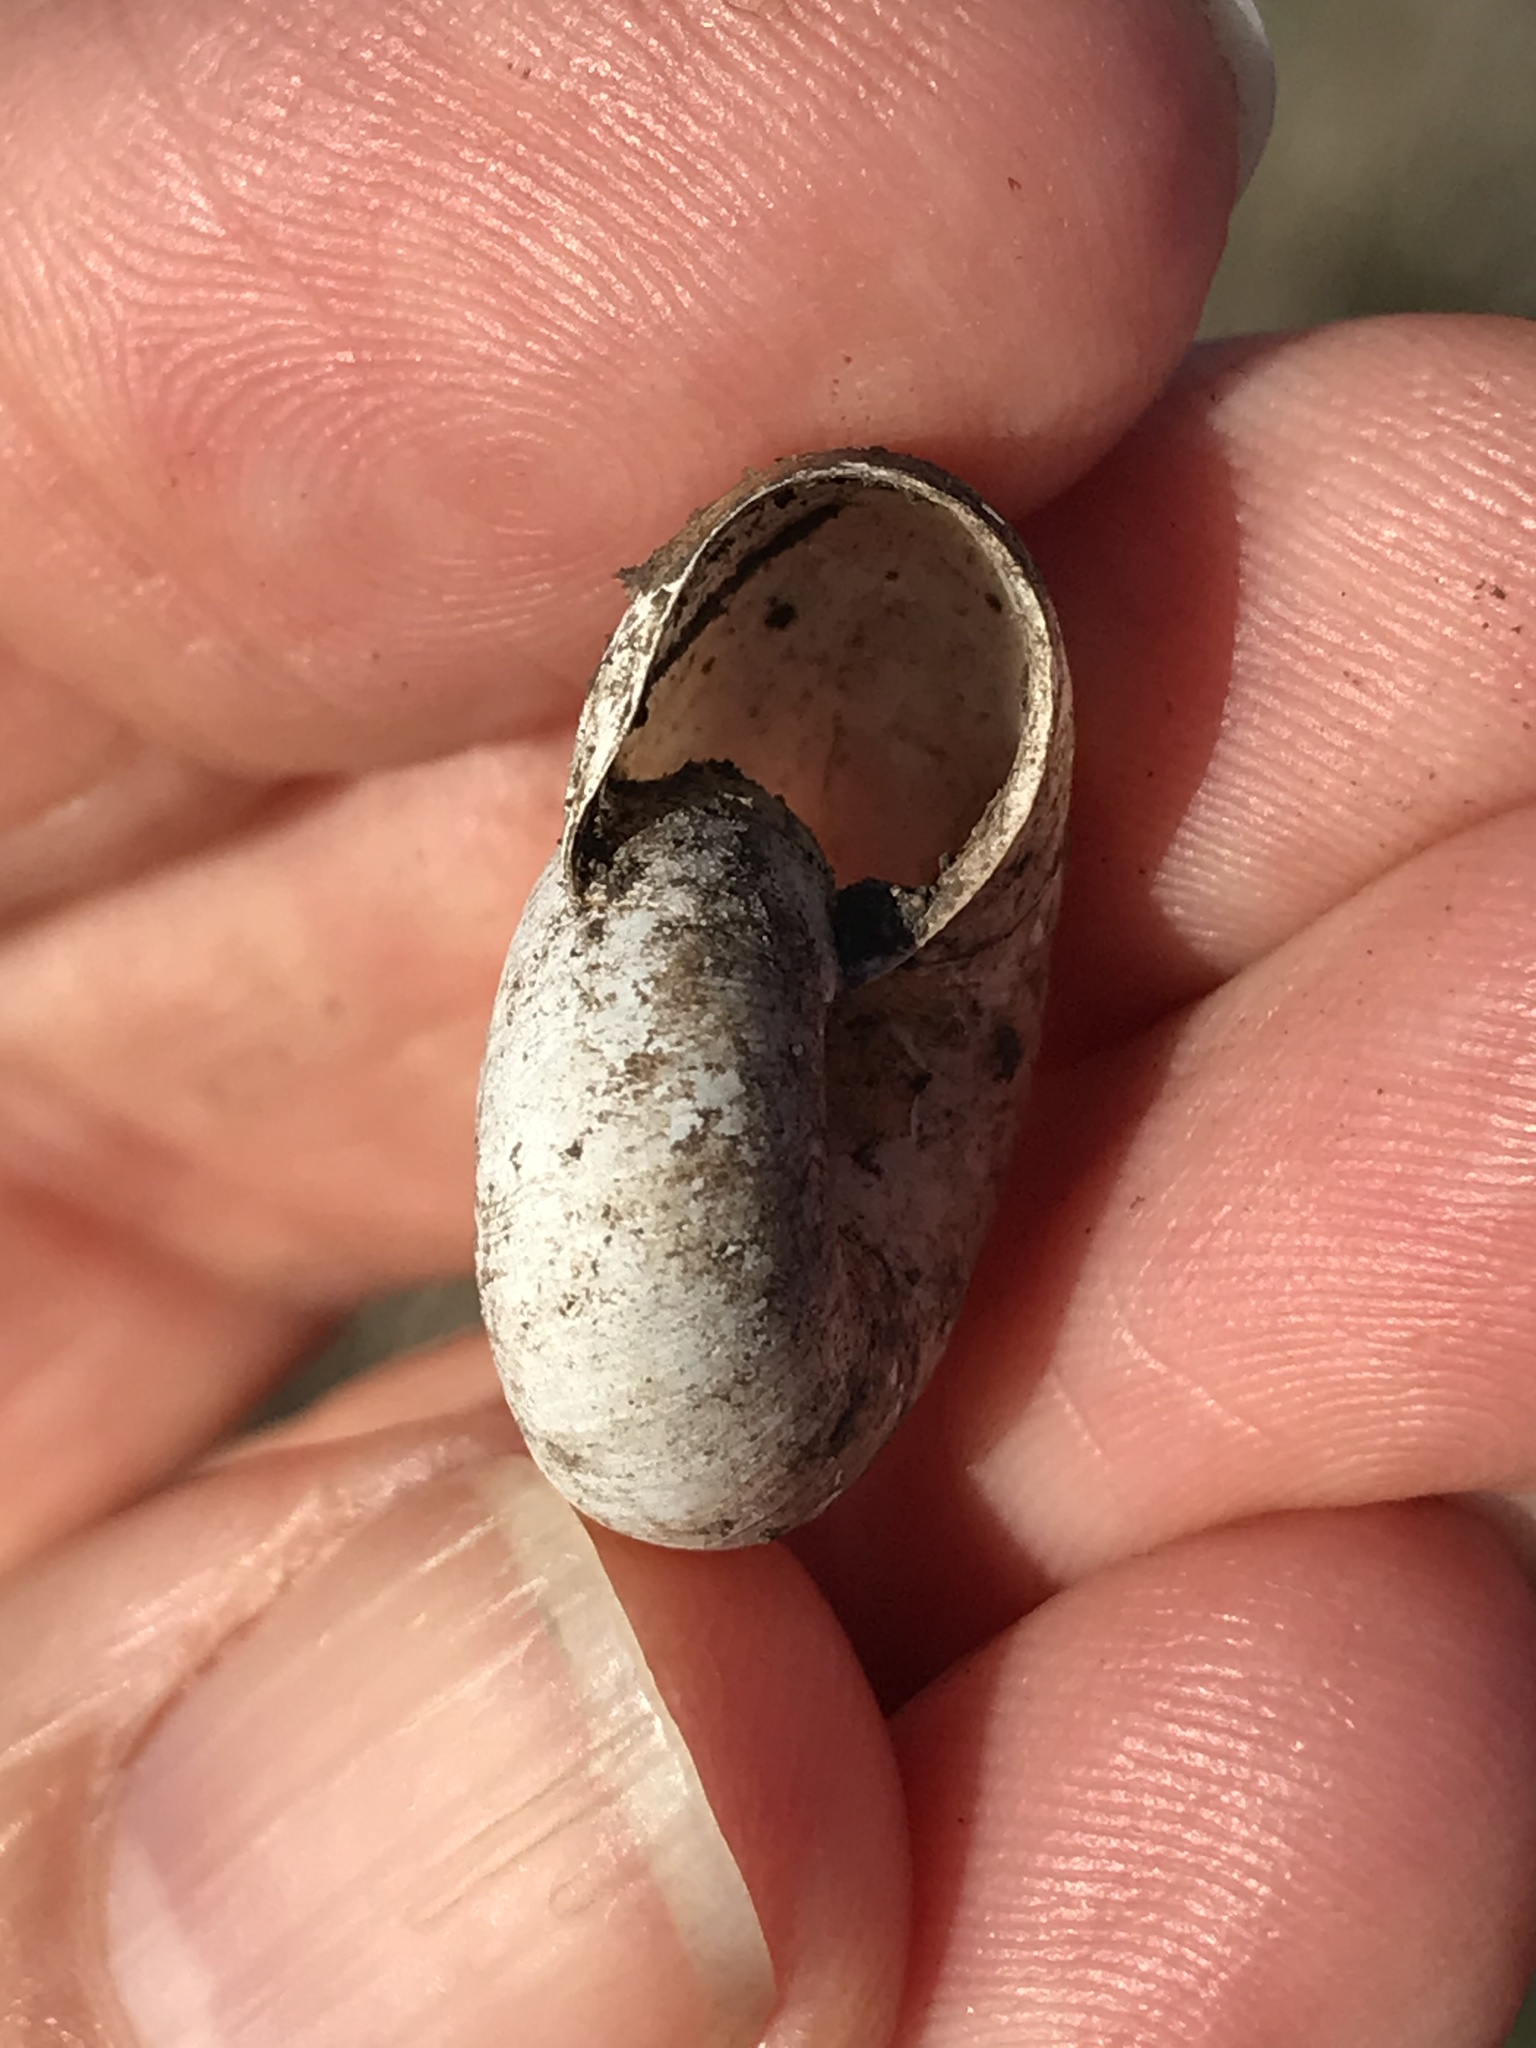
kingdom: Animalia
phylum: Mollusca
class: Gastropoda
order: Stylommatophora
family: Haplotrematidae
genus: Haplotrema
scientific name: Haplotrema minimum
